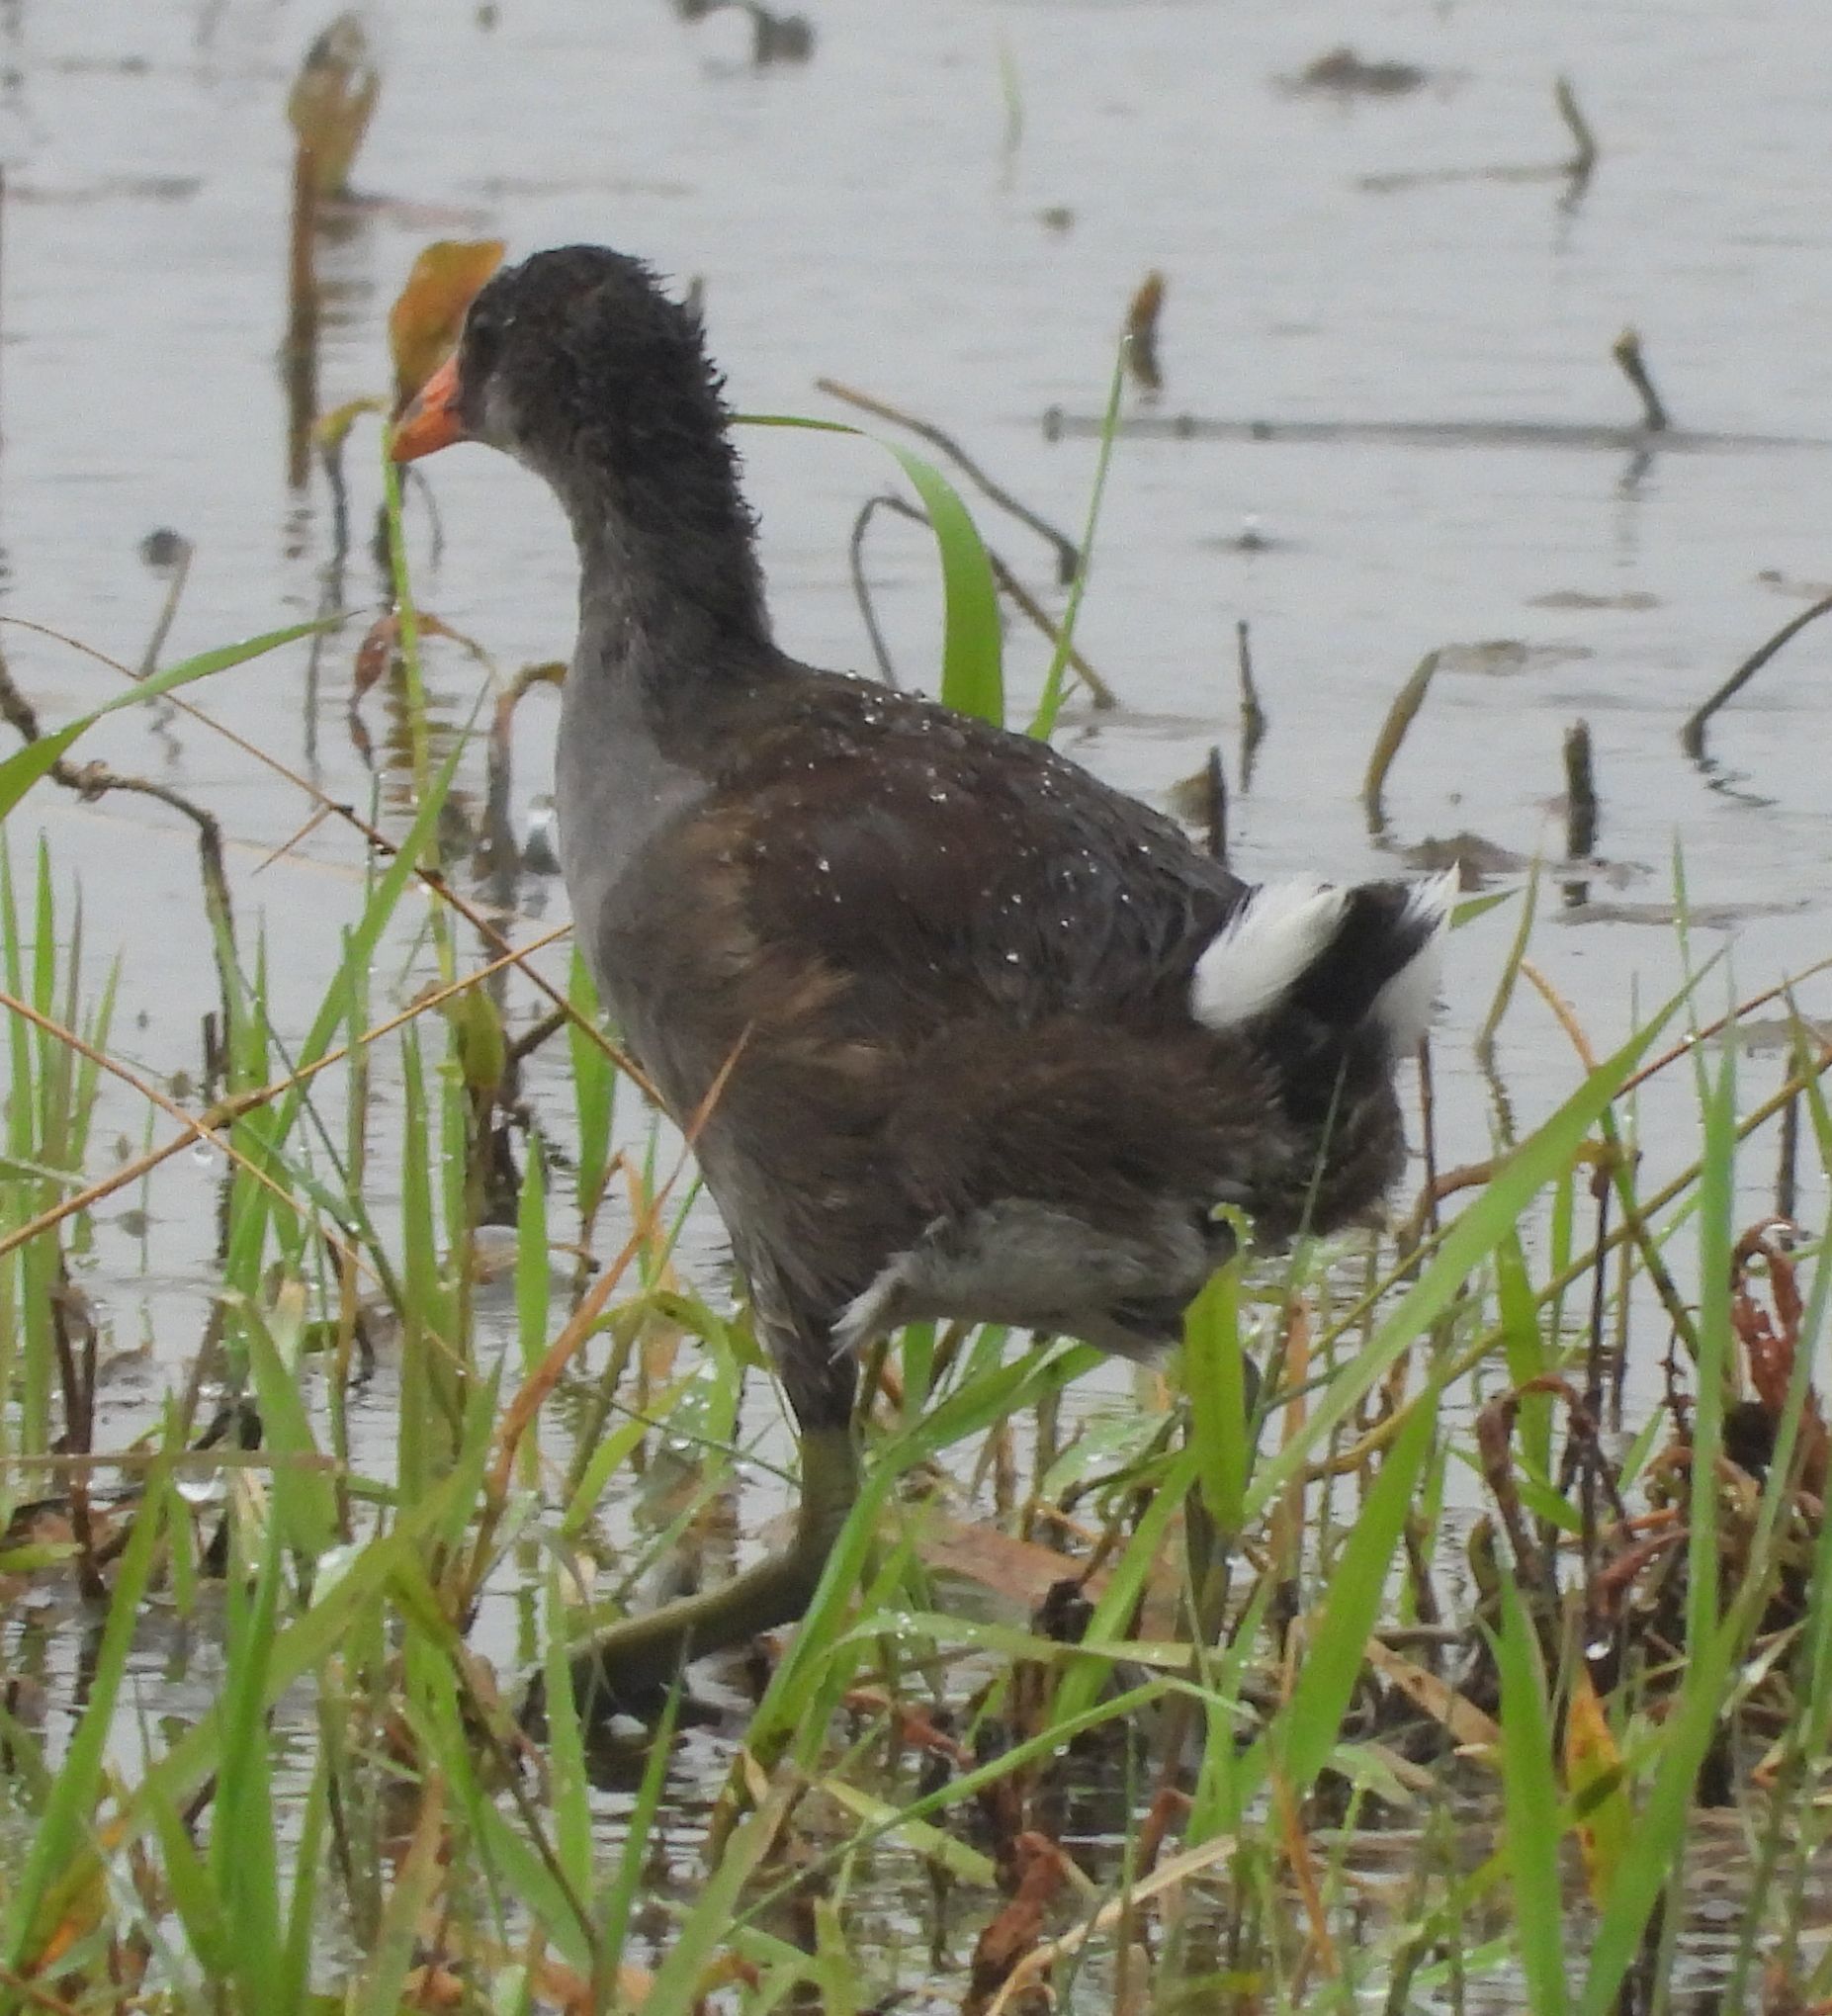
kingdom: Animalia
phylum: Chordata
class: Aves
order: Gruiformes
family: Rallidae
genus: Gallinula
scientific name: Gallinula chloropus
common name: Common moorhen
